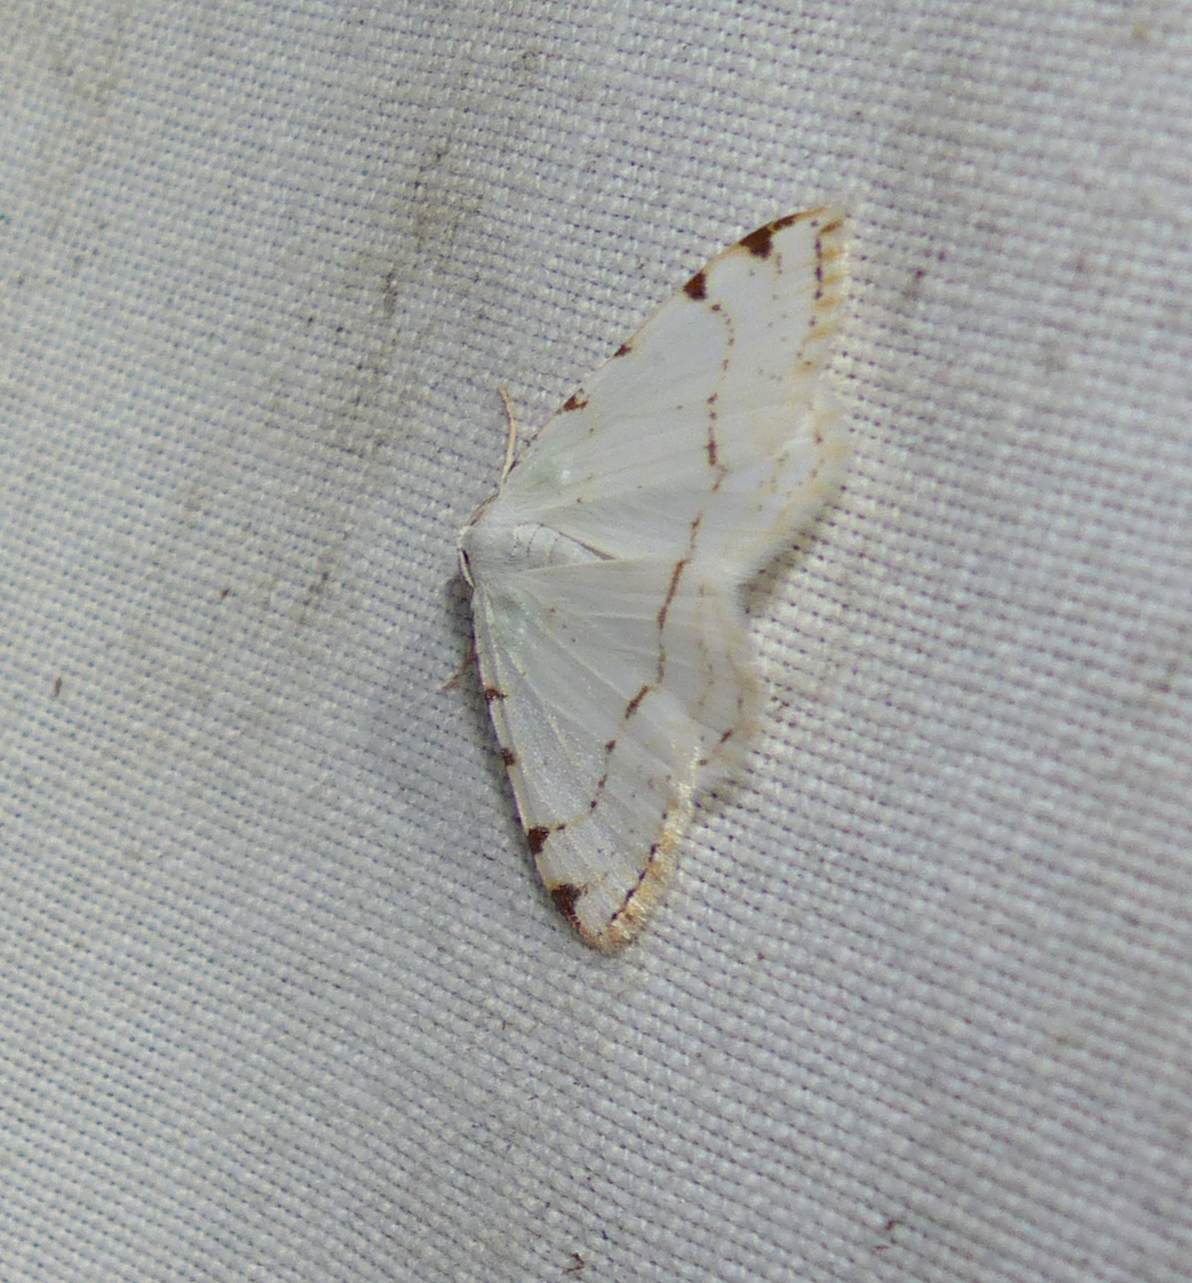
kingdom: Animalia
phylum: Arthropoda
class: Insecta
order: Lepidoptera
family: Geometridae
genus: Macaria
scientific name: Macaria pustularia
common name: Lesser maple spanworm moth
